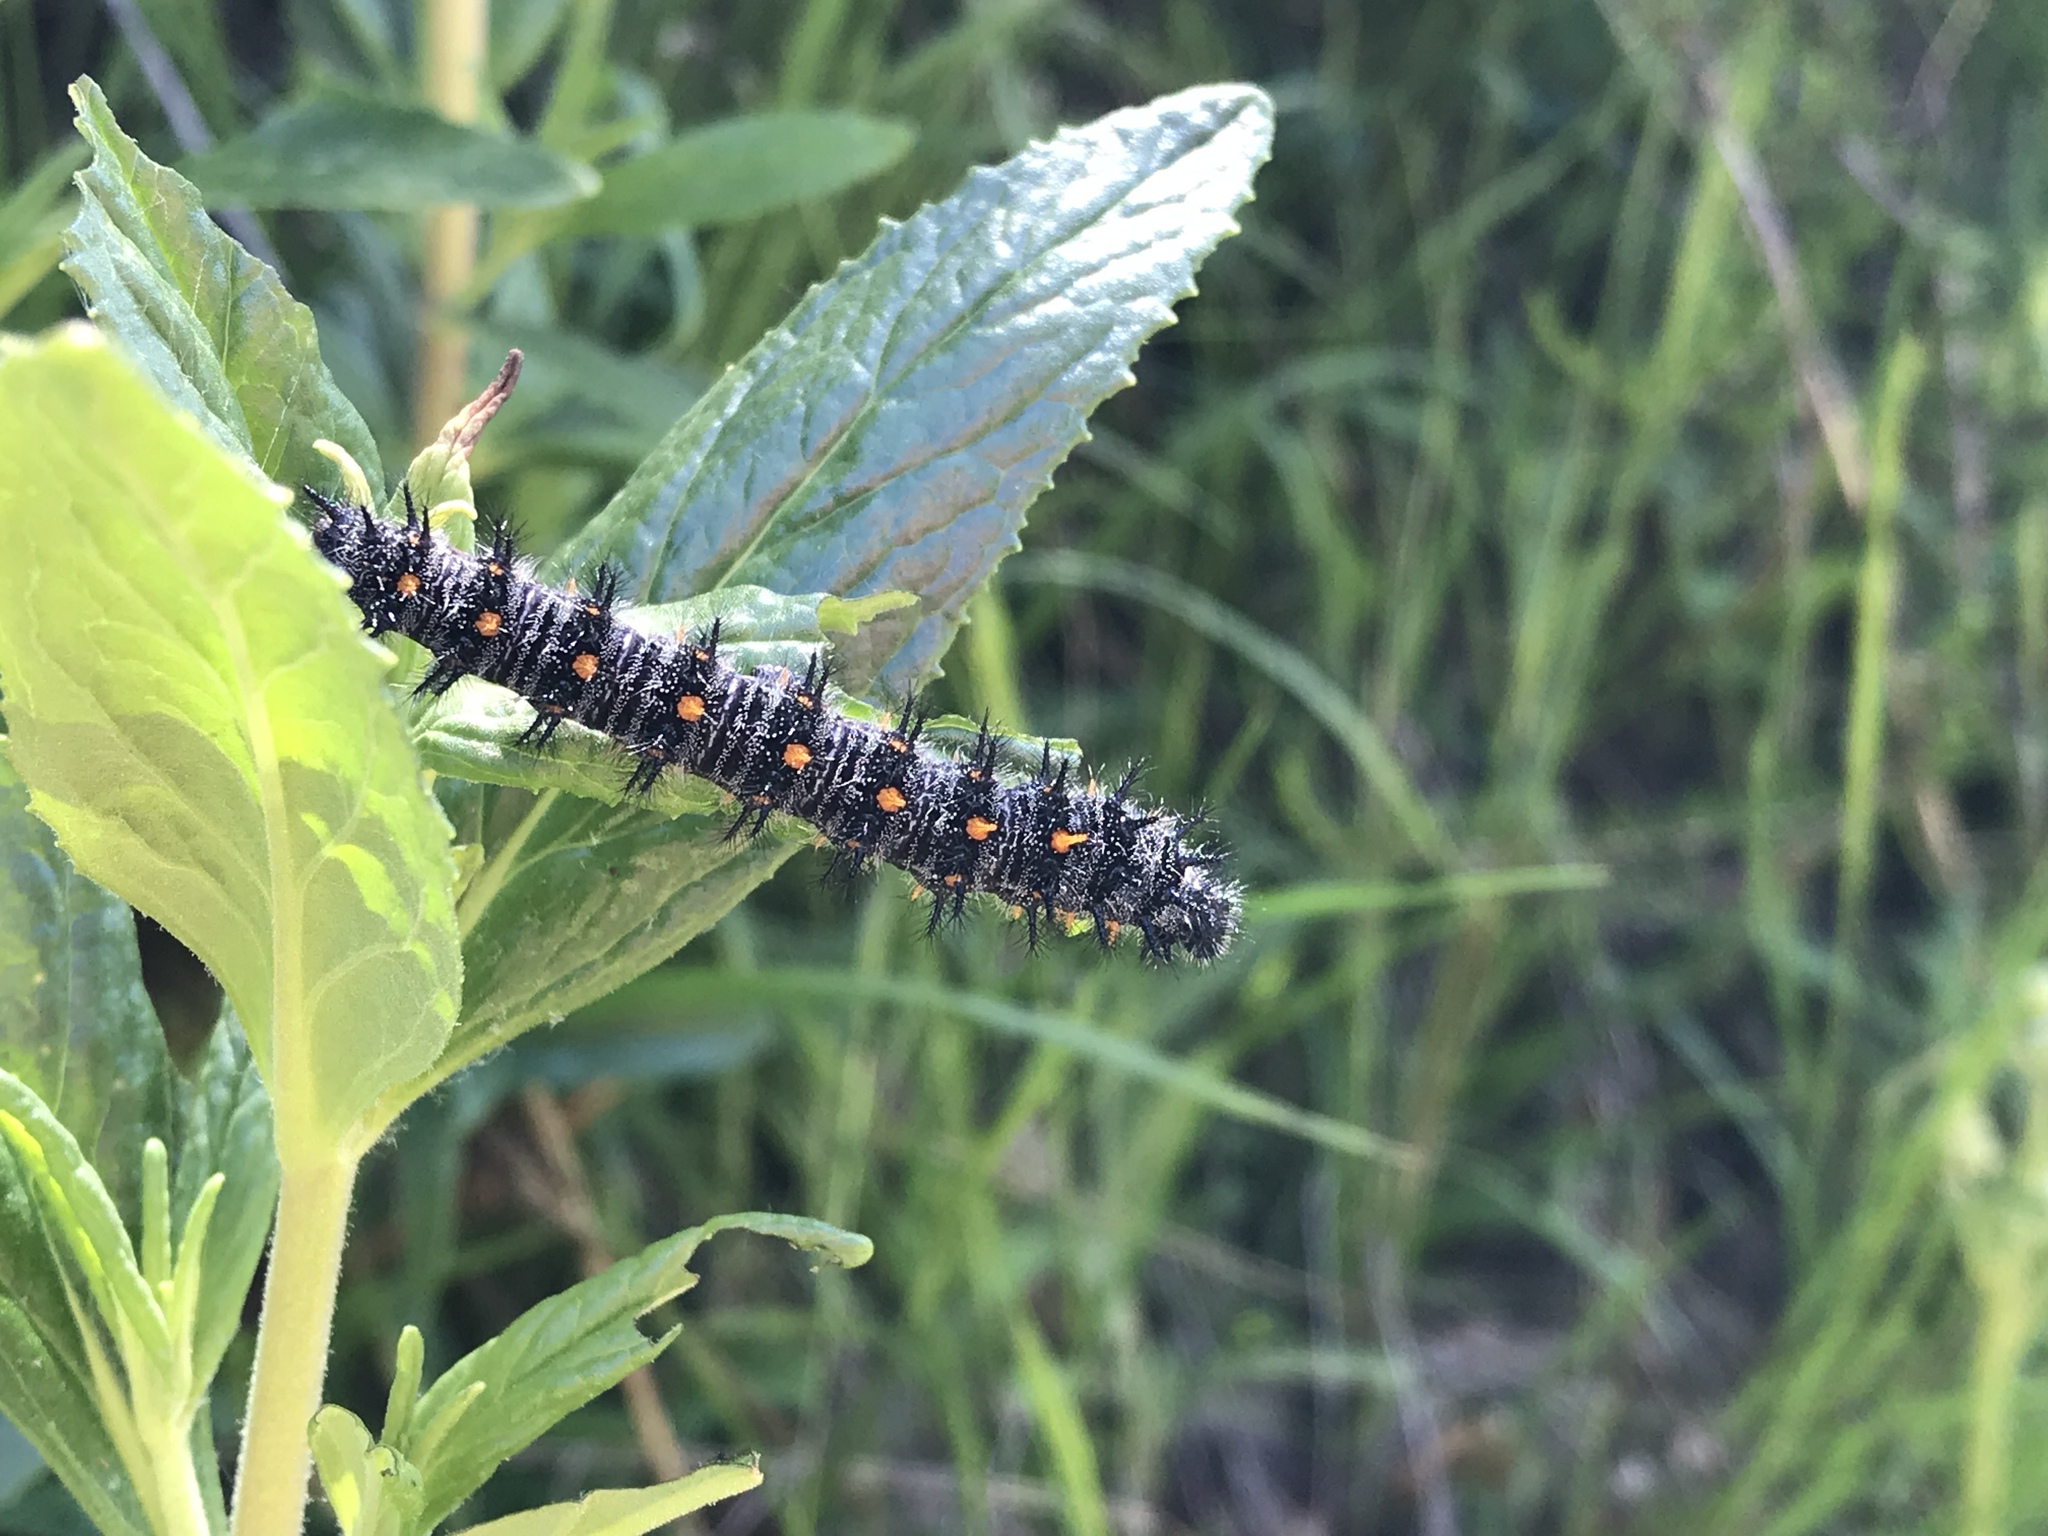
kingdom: Animalia
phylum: Arthropoda
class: Insecta
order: Lepidoptera
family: Nymphalidae
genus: Occidryas
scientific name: Occidryas chalcedona
